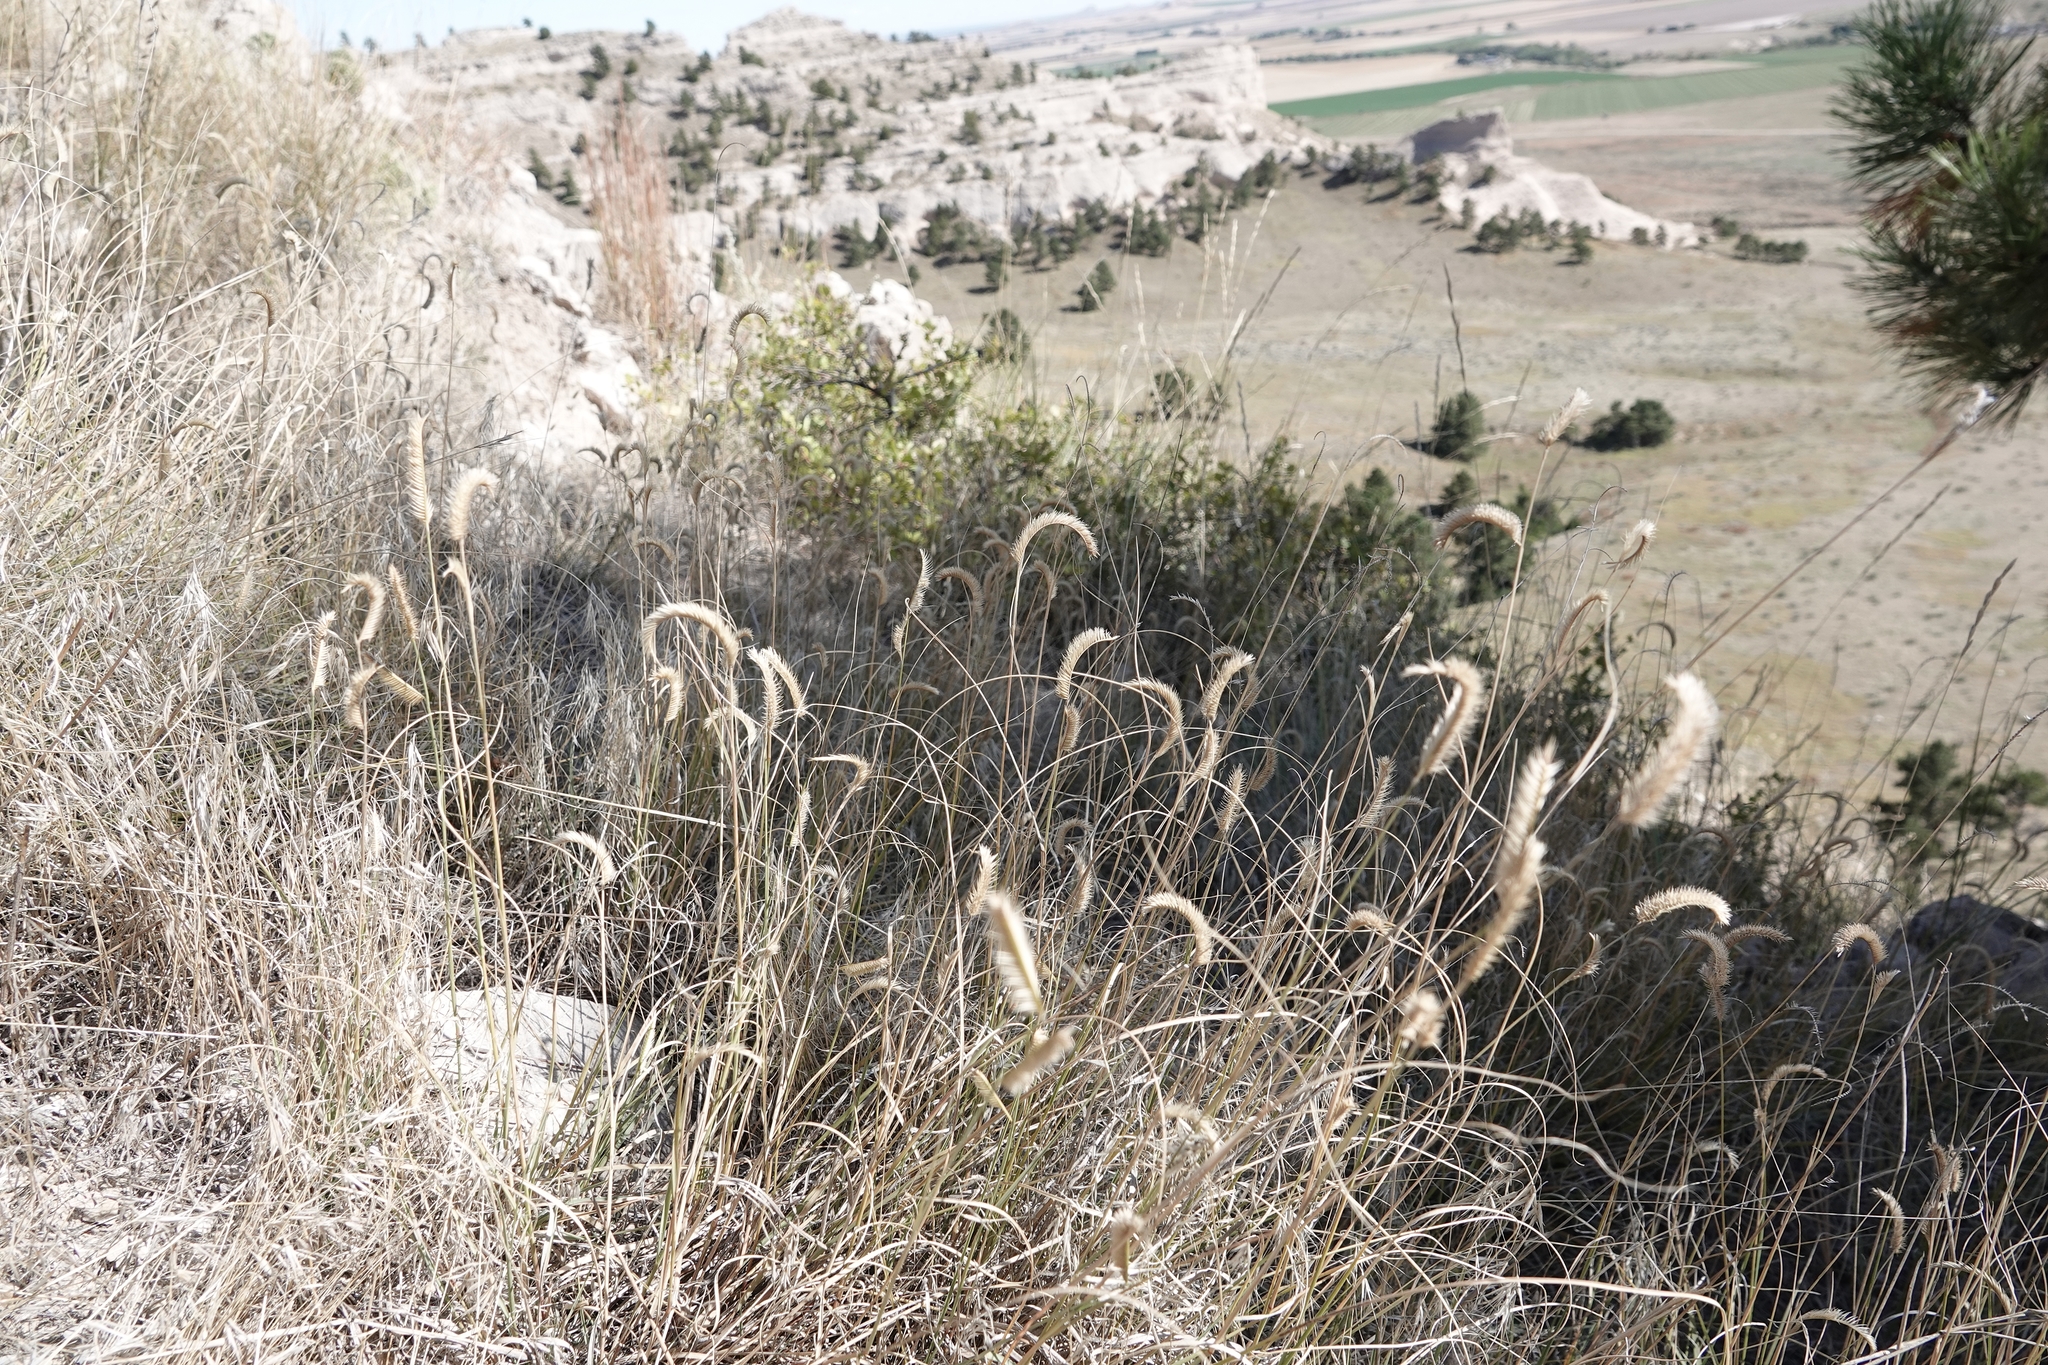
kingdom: Plantae
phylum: Tracheophyta
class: Liliopsida
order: Poales
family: Poaceae
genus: Bouteloua
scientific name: Bouteloua gracilis
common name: Blue grama
